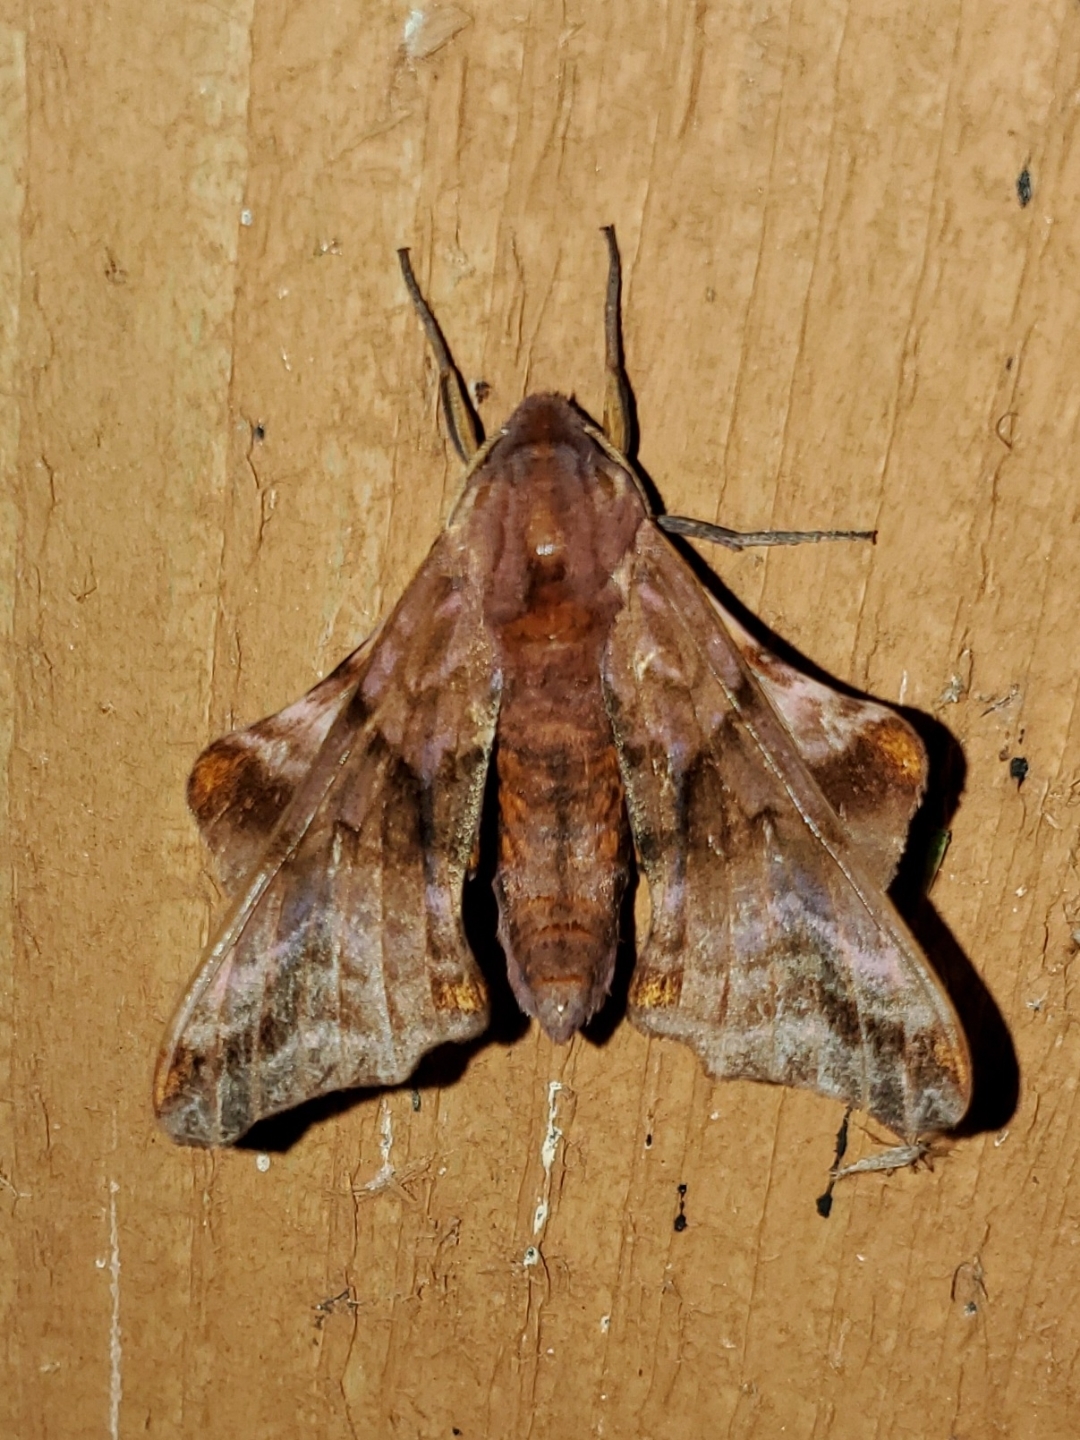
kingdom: Animalia
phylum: Arthropoda
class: Insecta
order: Lepidoptera
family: Sphingidae
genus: Paonias
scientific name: Paonias myops
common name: Small-eyed sphinx
